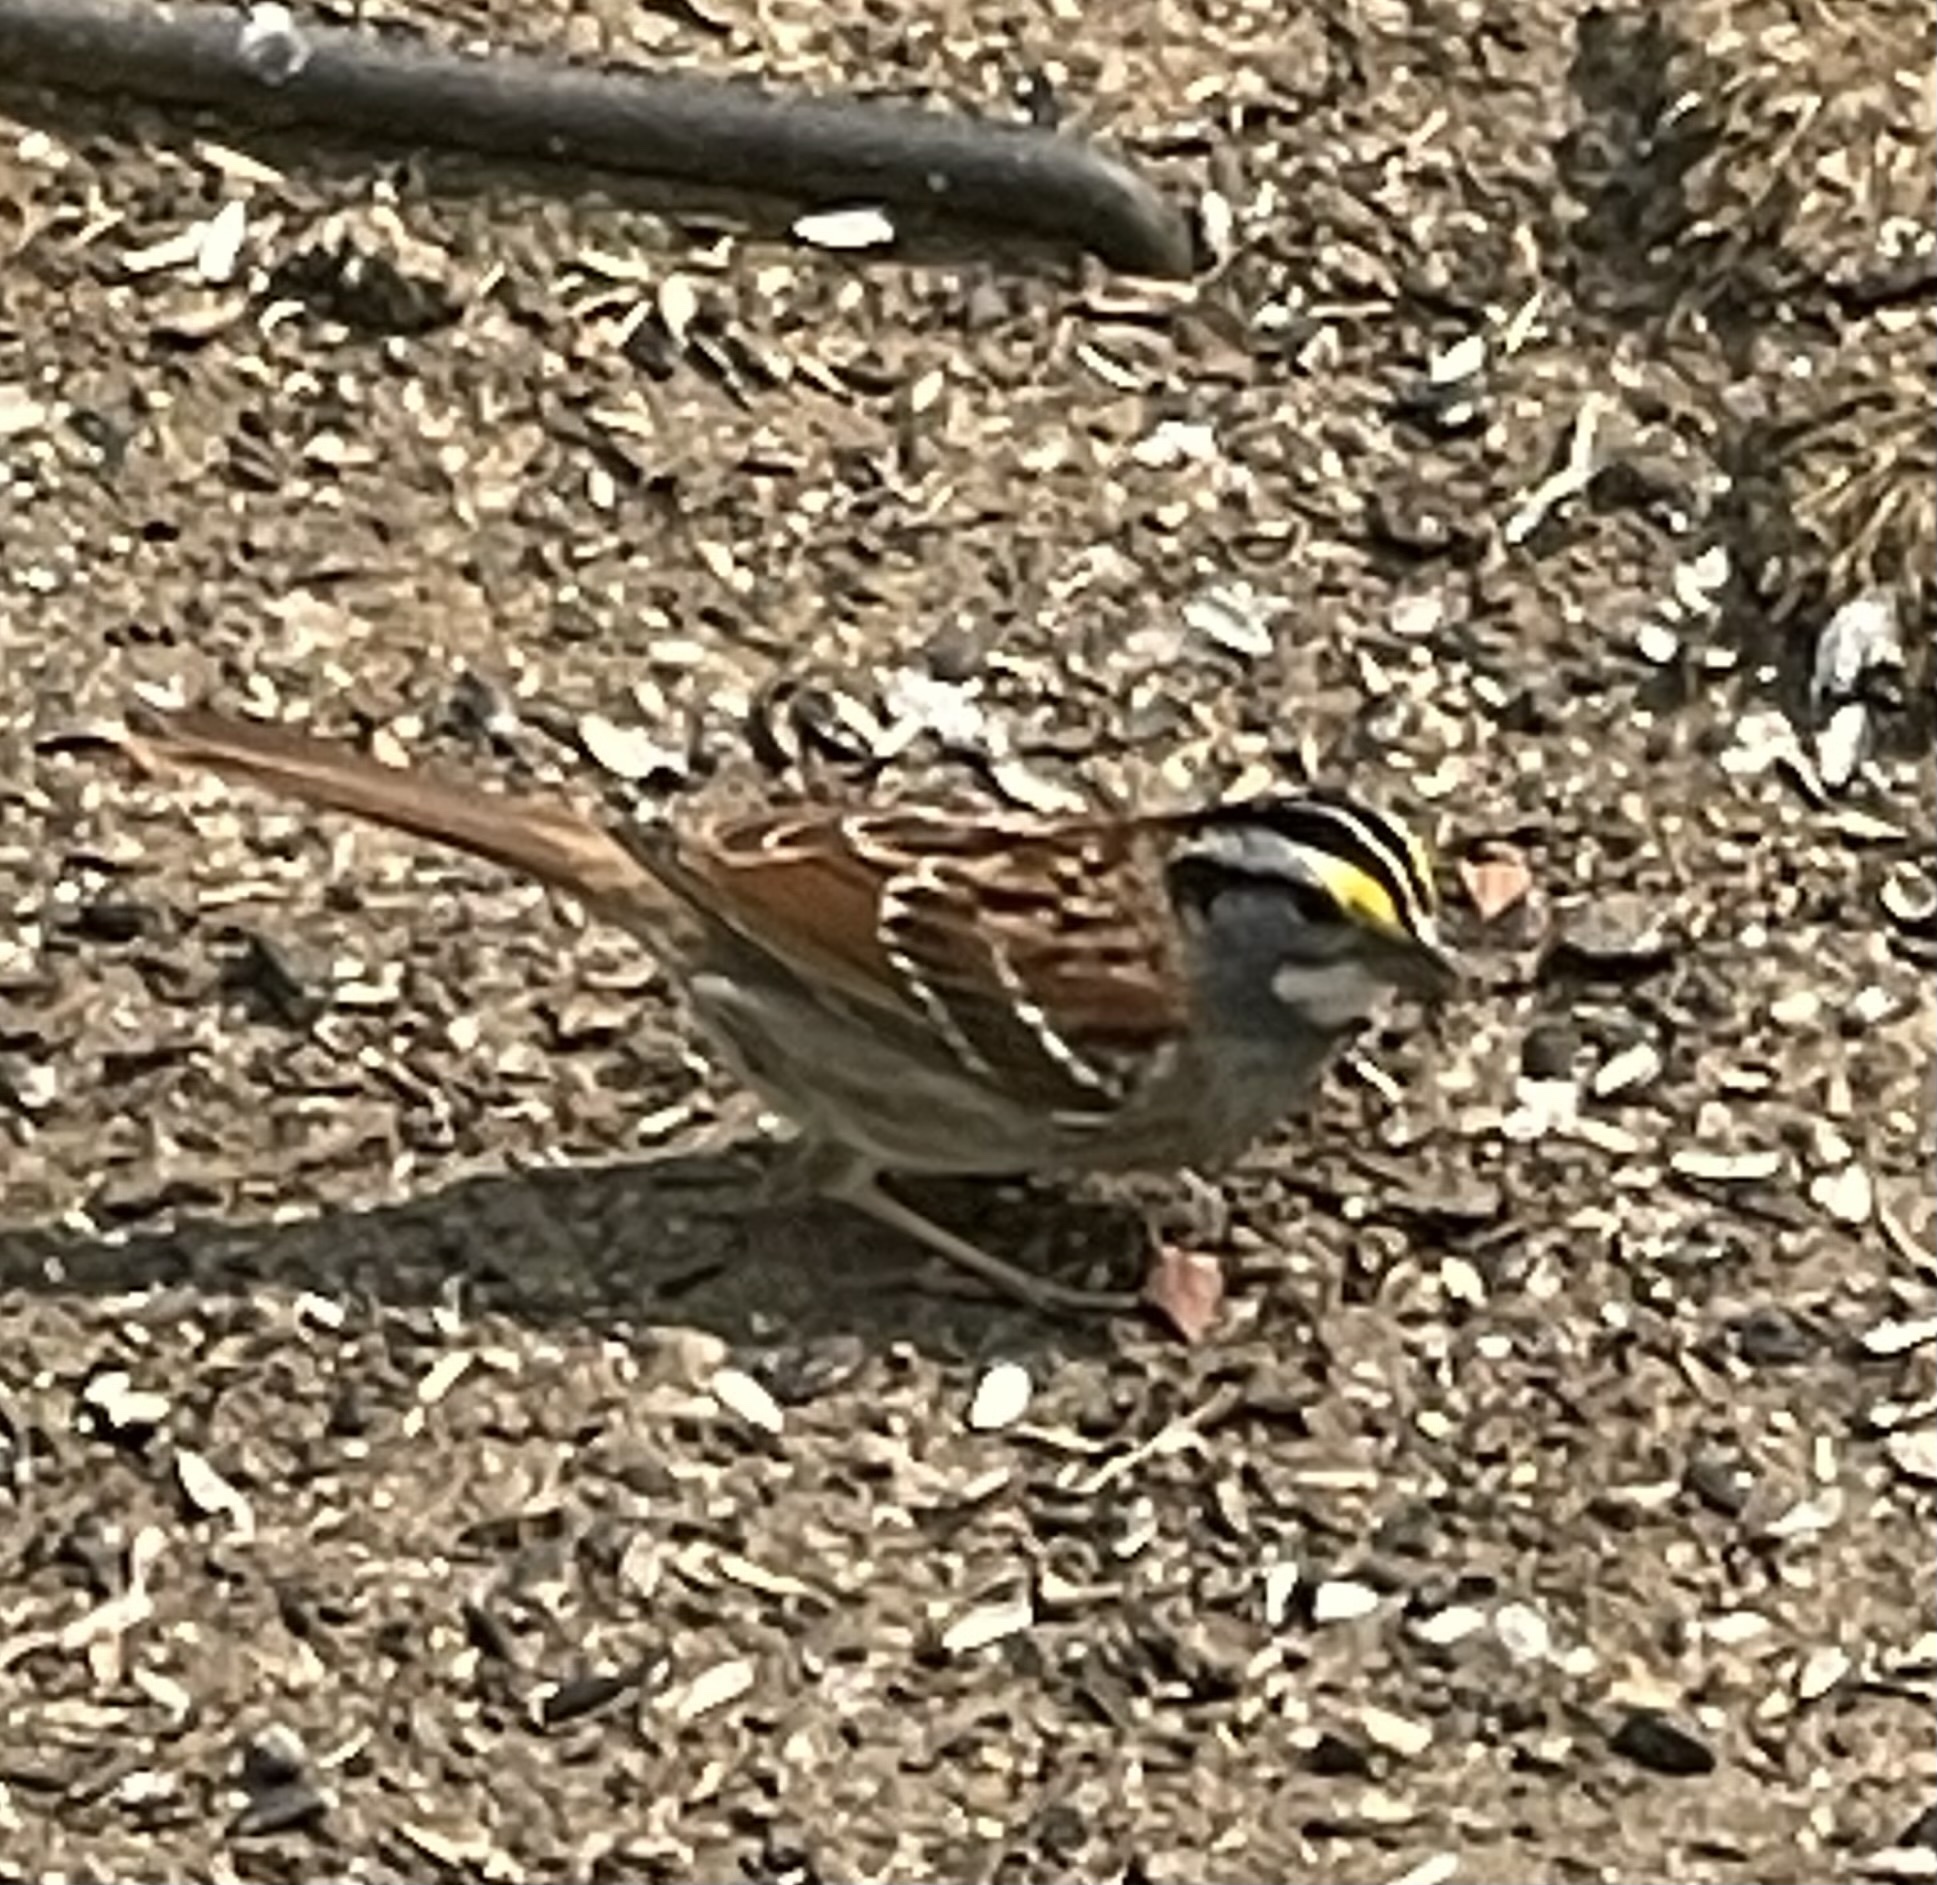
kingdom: Animalia
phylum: Chordata
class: Aves
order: Passeriformes
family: Passerellidae
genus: Zonotrichia
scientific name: Zonotrichia albicollis
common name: White-throated sparrow
